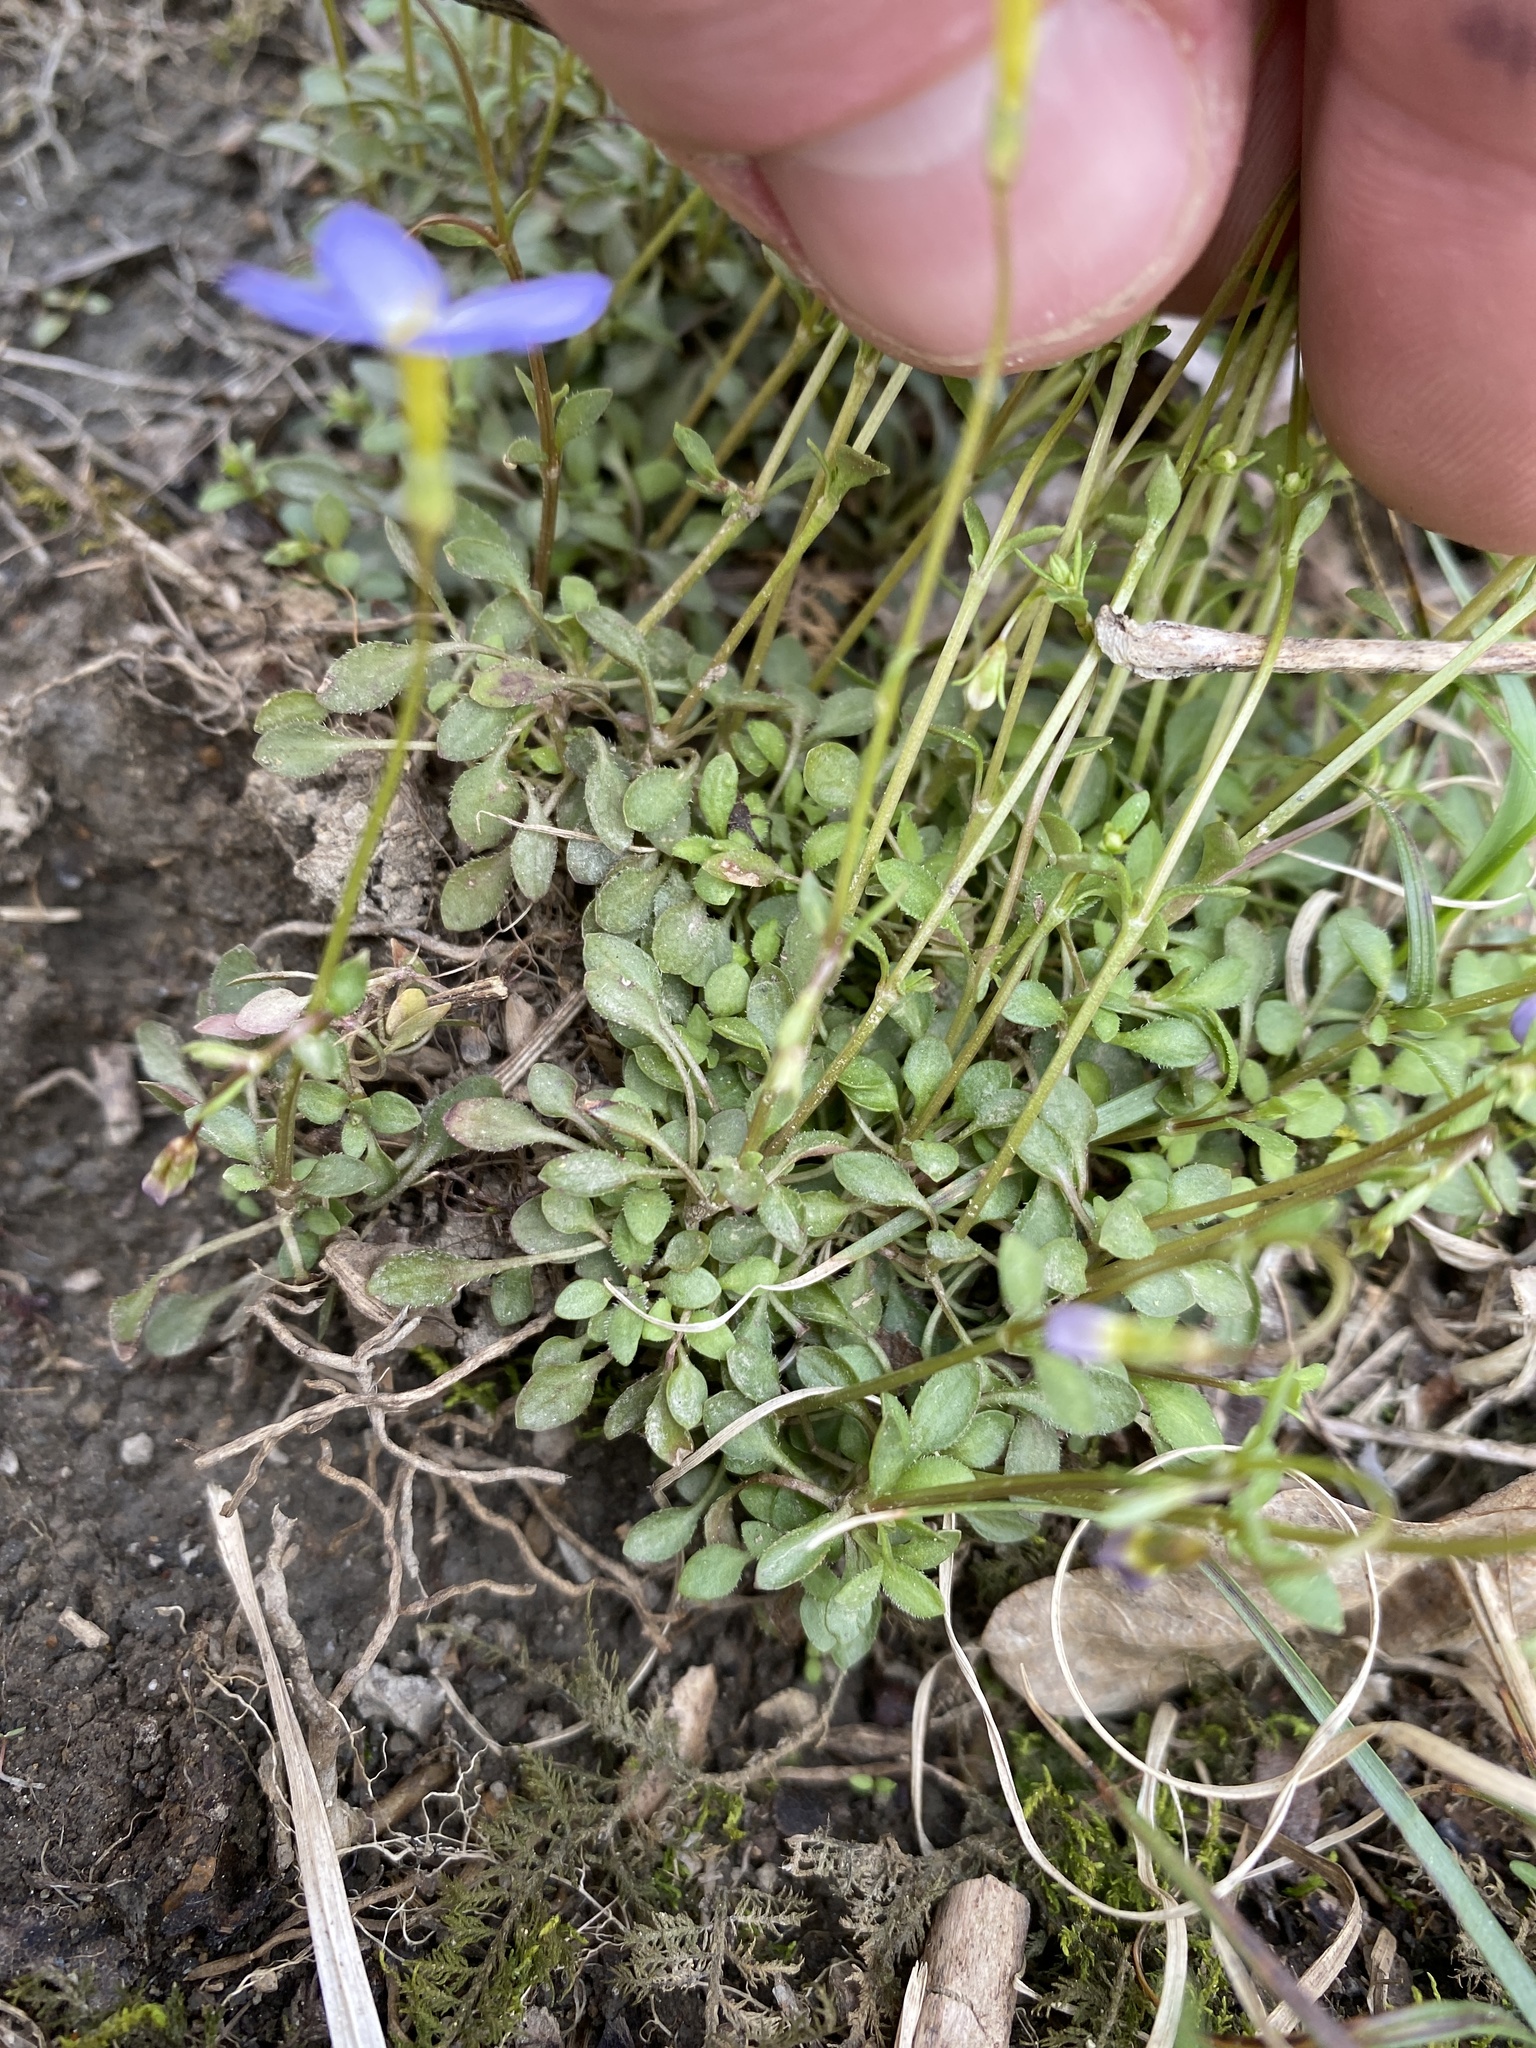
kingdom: Plantae
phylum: Tracheophyta
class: Magnoliopsida
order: Gentianales
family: Rubiaceae
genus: Houstonia
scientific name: Houstonia caerulea
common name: Bluets
